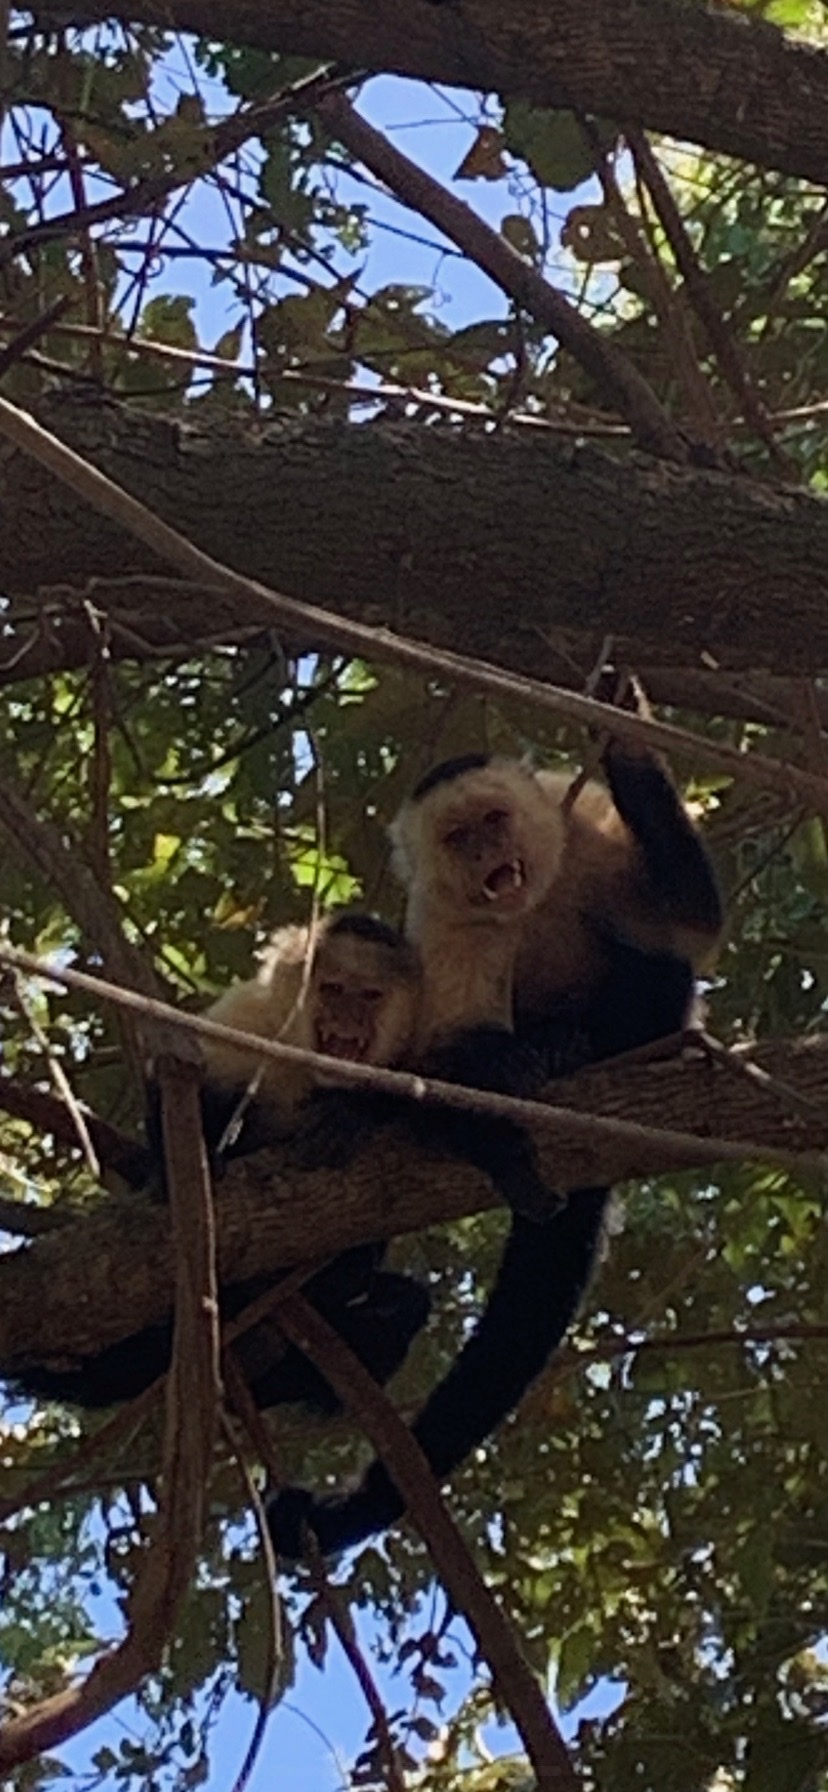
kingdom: Animalia
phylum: Chordata
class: Mammalia
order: Primates
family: Cebidae
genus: Cebus
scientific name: Cebus imitator
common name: Panamanian white-faced capuchin
